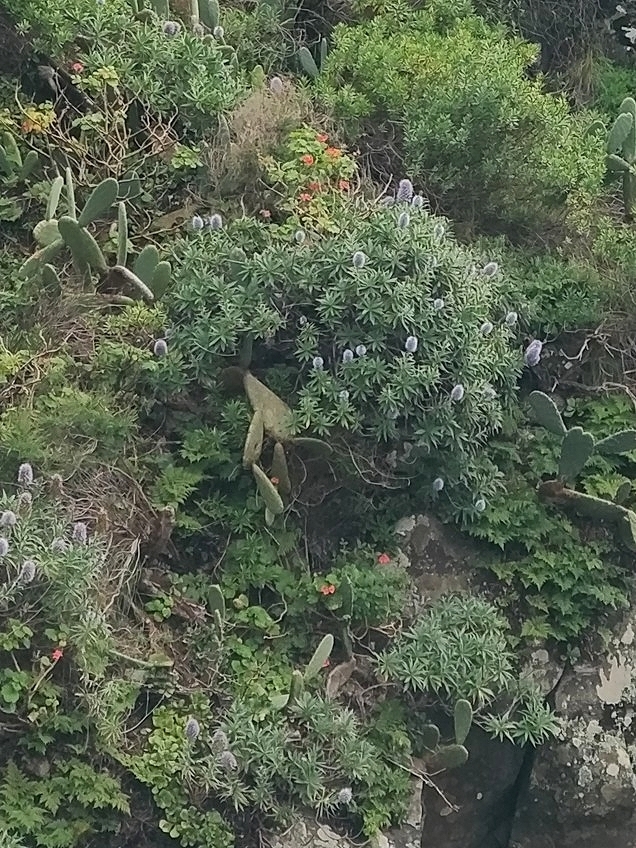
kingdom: Plantae
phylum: Tracheophyta
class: Magnoliopsida
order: Geraniales
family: Geraniaceae
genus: Pelargonium
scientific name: Pelargonium hybridum
